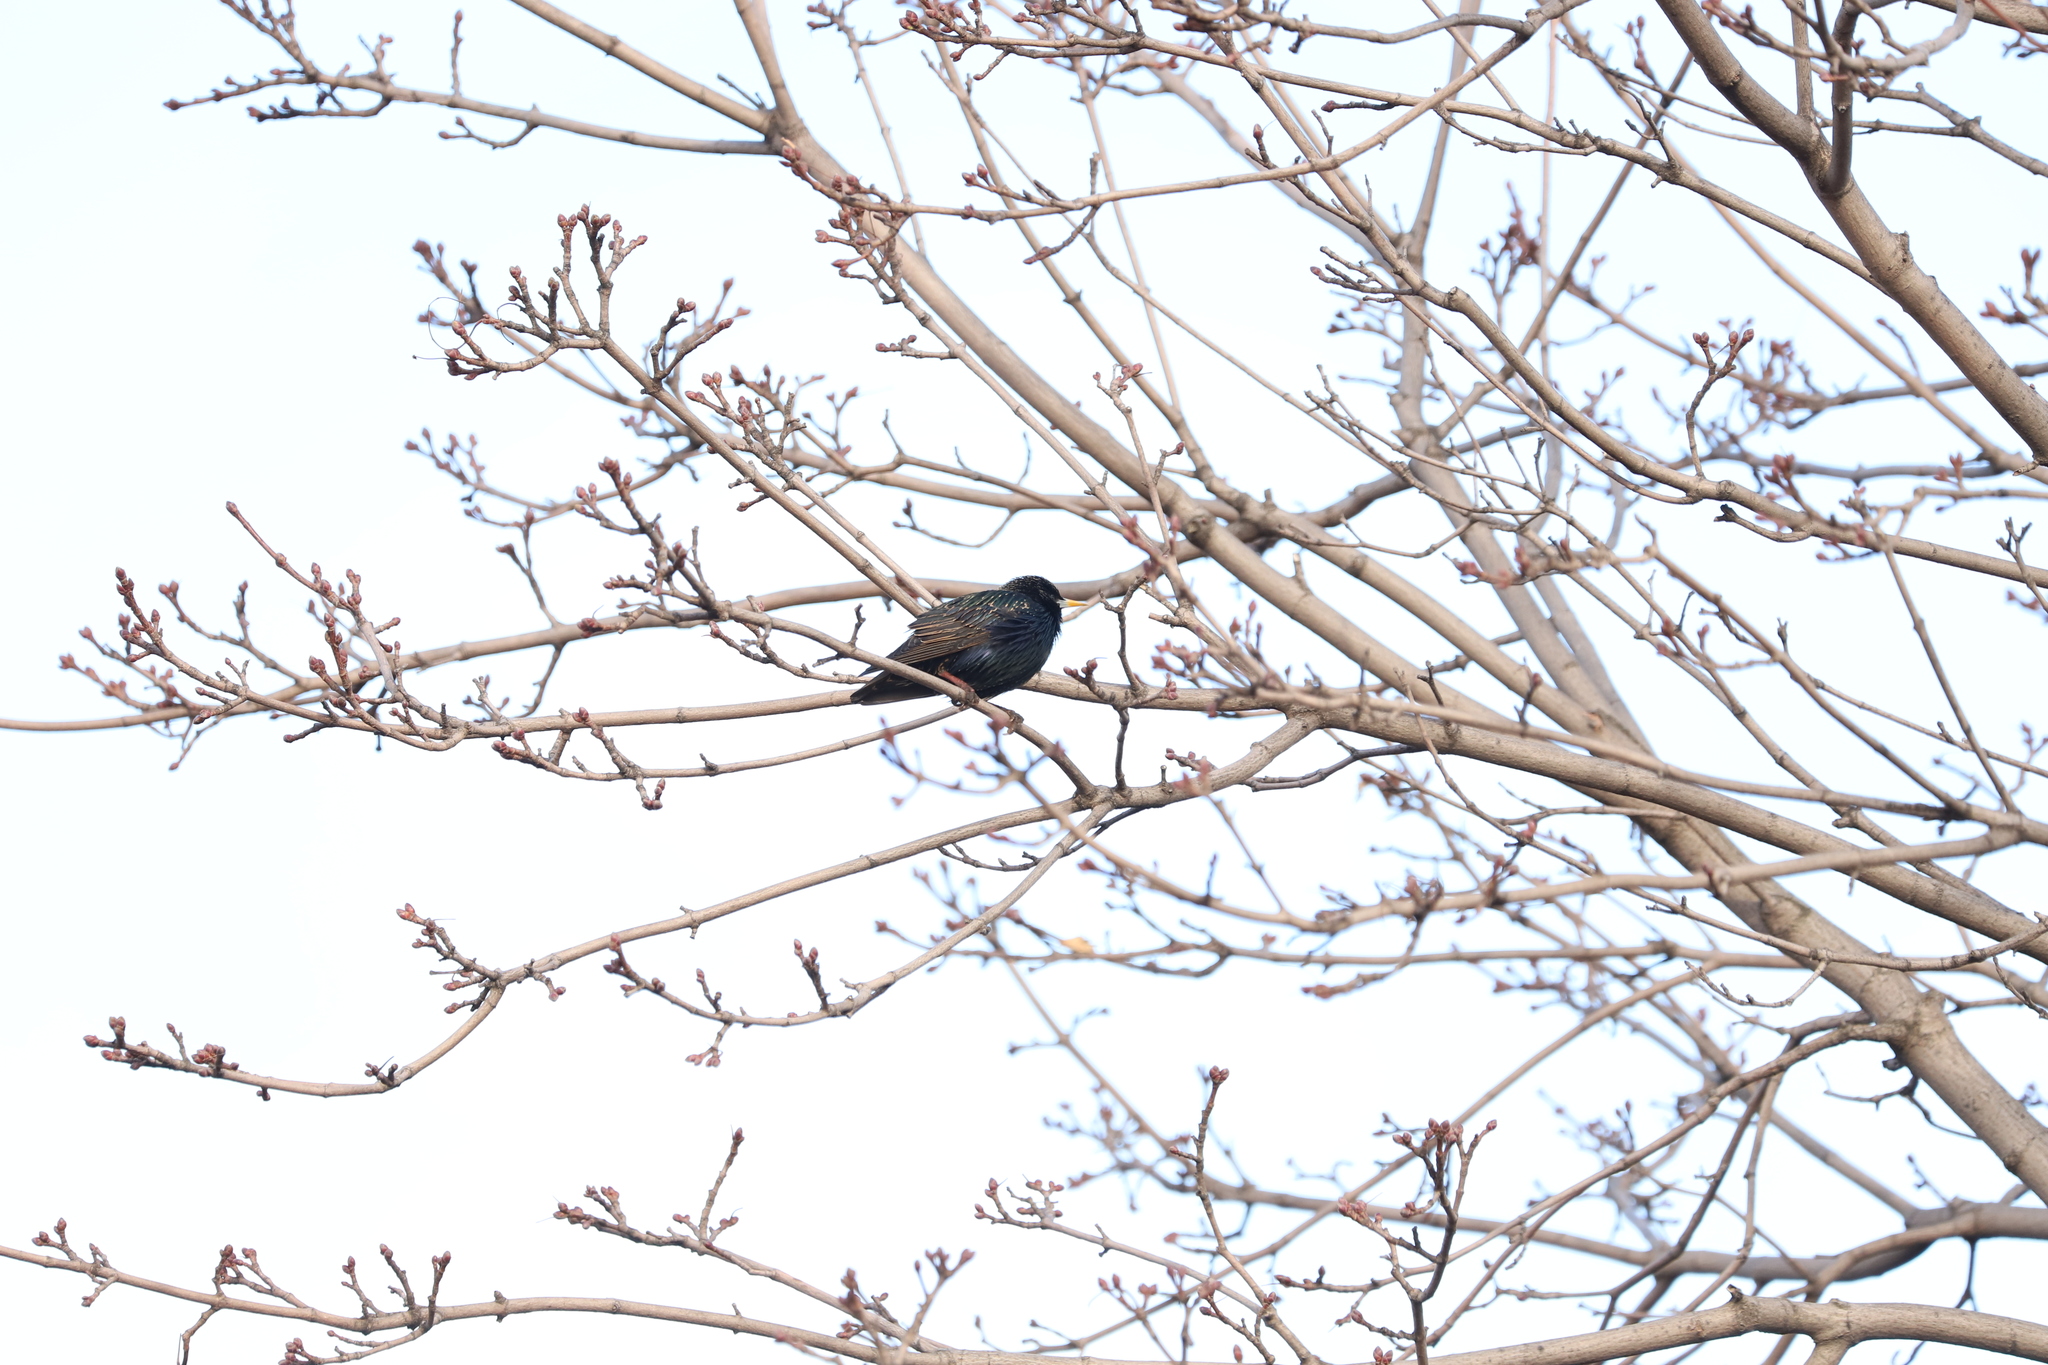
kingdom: Animalia
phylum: Chordata
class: Aves
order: Passeriformes
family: Sturnidae
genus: Sturnus
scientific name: Sturnus vulgaris
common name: Common starling
